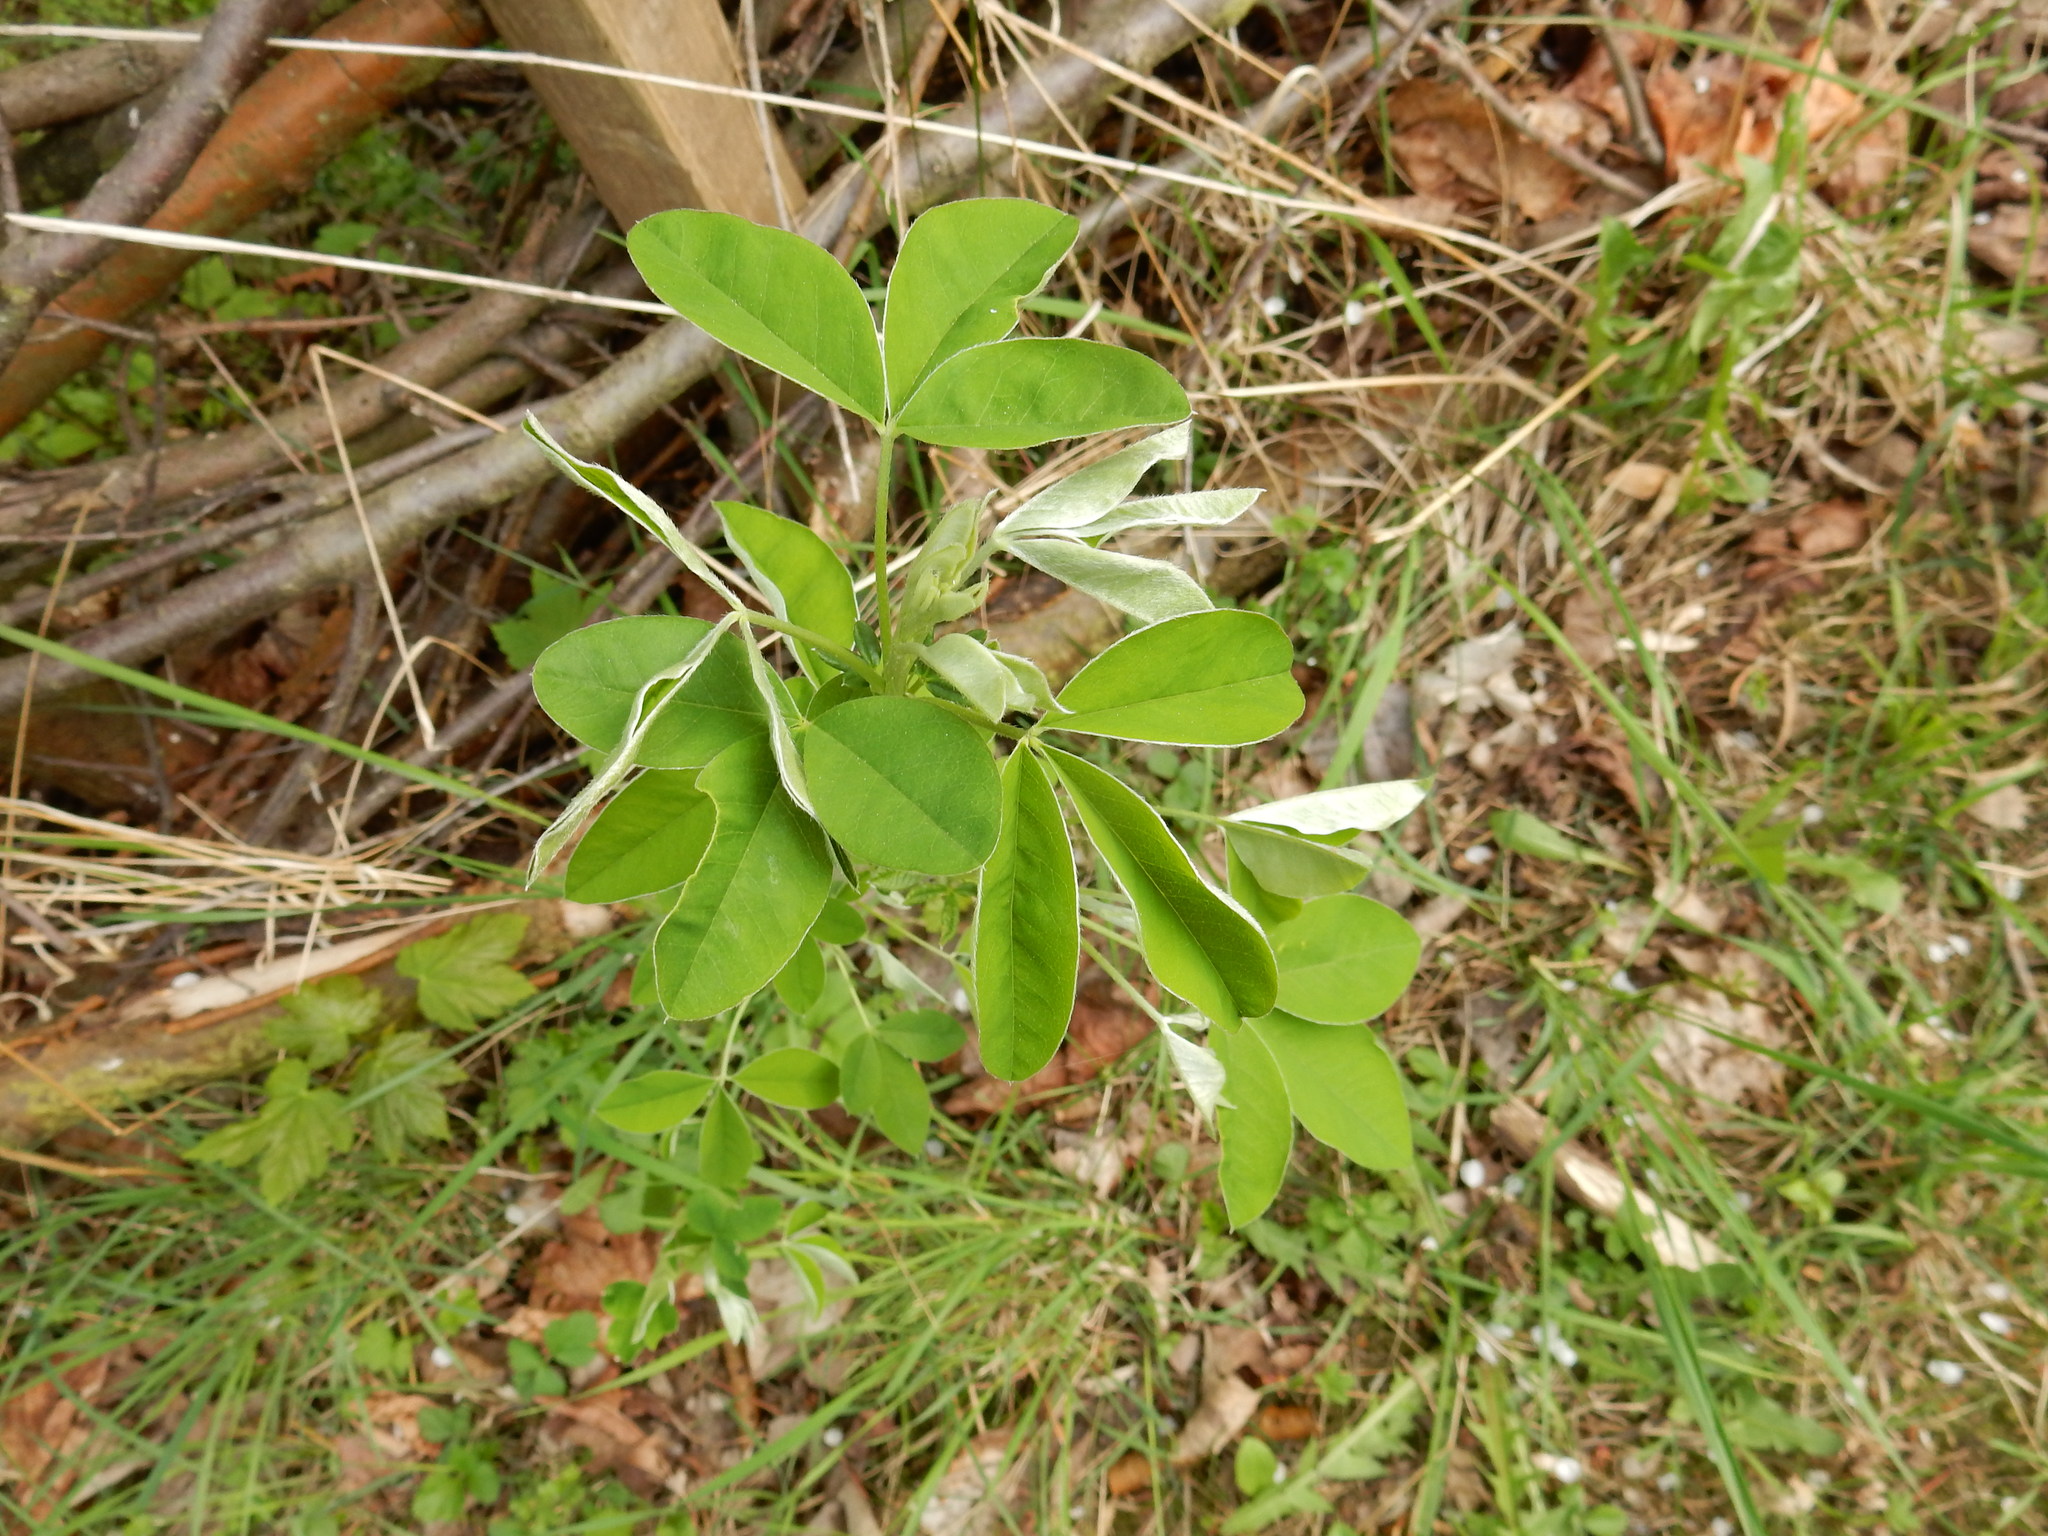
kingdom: Plantae
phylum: Tracheophyta
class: Magnoliopsida
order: Fabales
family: Fabaceae
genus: Laburnum
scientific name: Laburnum anagyroides
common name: Laburnum
